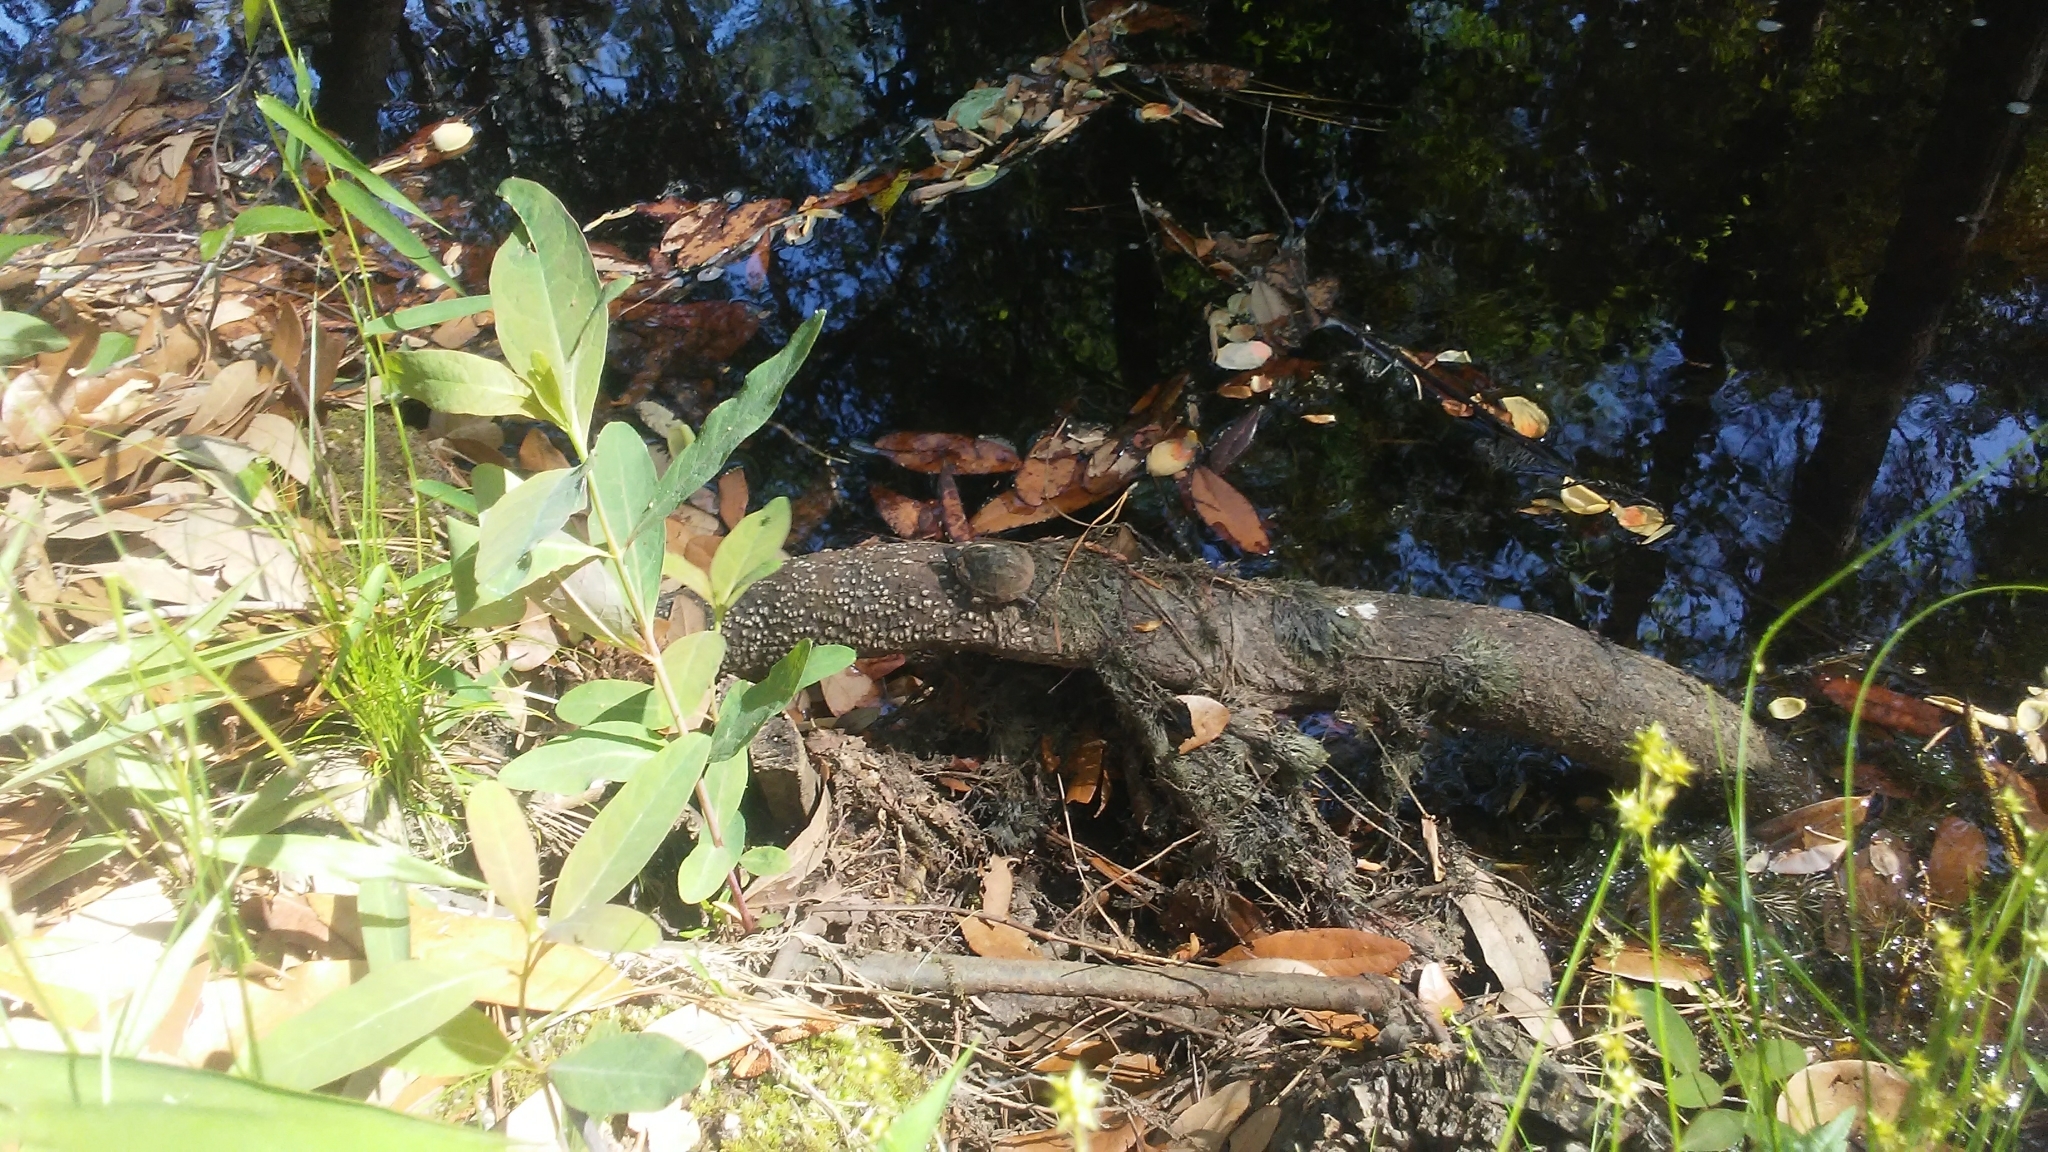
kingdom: Animalia
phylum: Chordata
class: Testudines
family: Kinosternidae
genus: Sternotherus
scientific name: Sternotherus odoratus
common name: Common musk turtle
